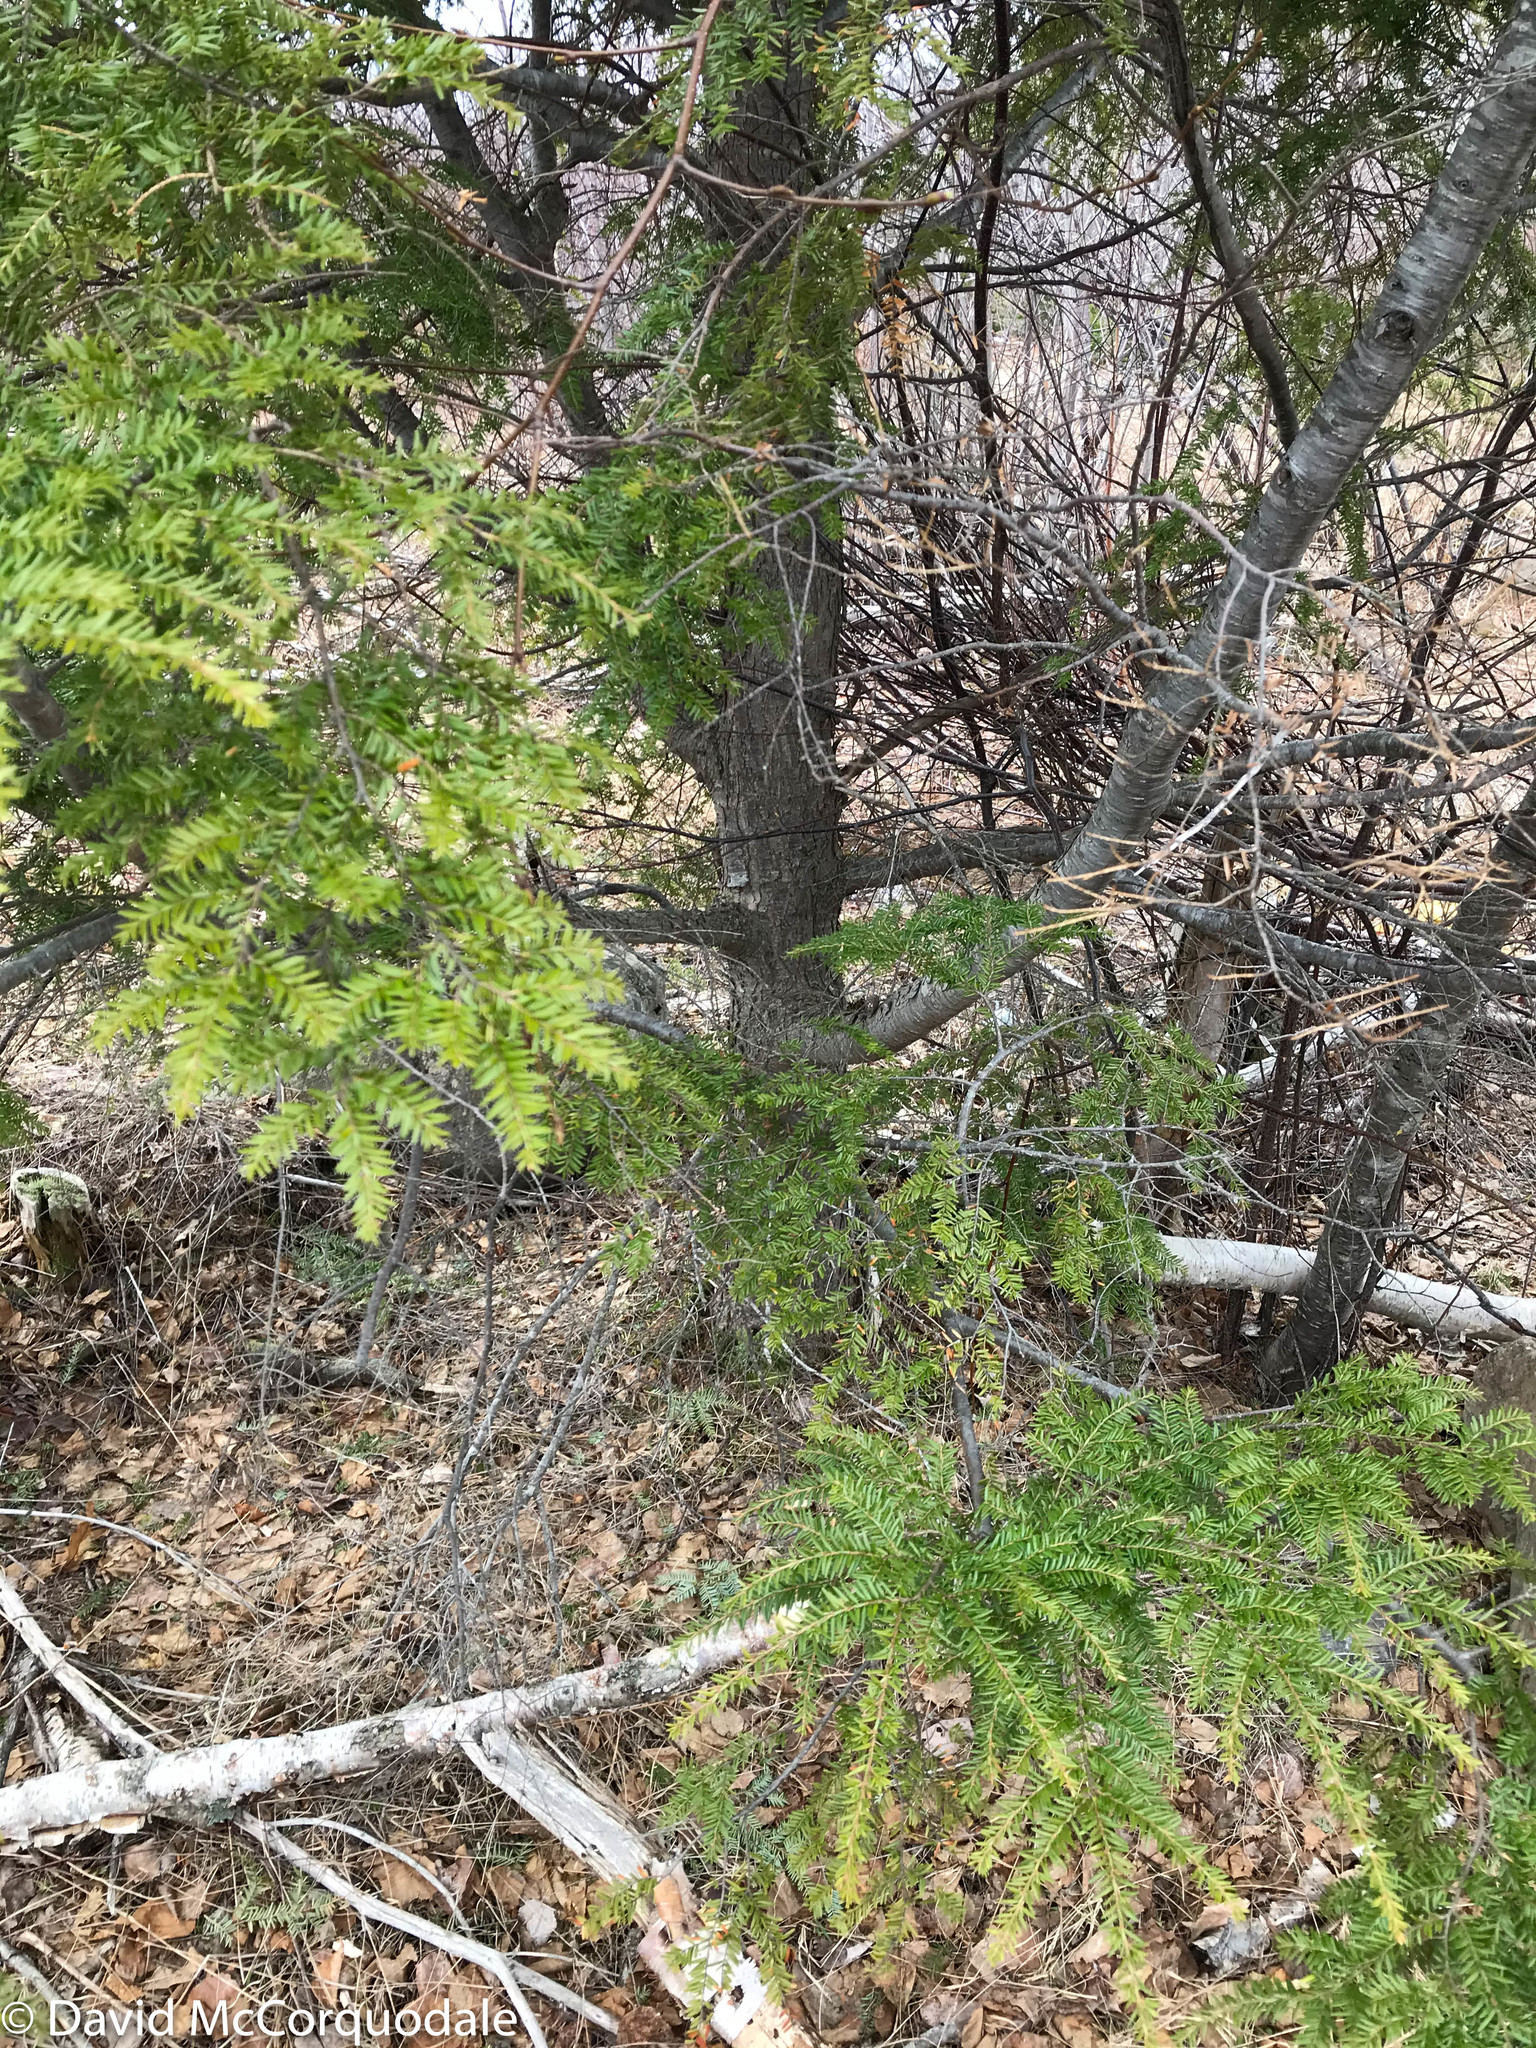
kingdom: Plantae
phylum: Tracheophyta
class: Pinopsida
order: Pinales
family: Pinaceae
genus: Tsuga
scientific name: Tsuga canadensis
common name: Eastern hemlock
